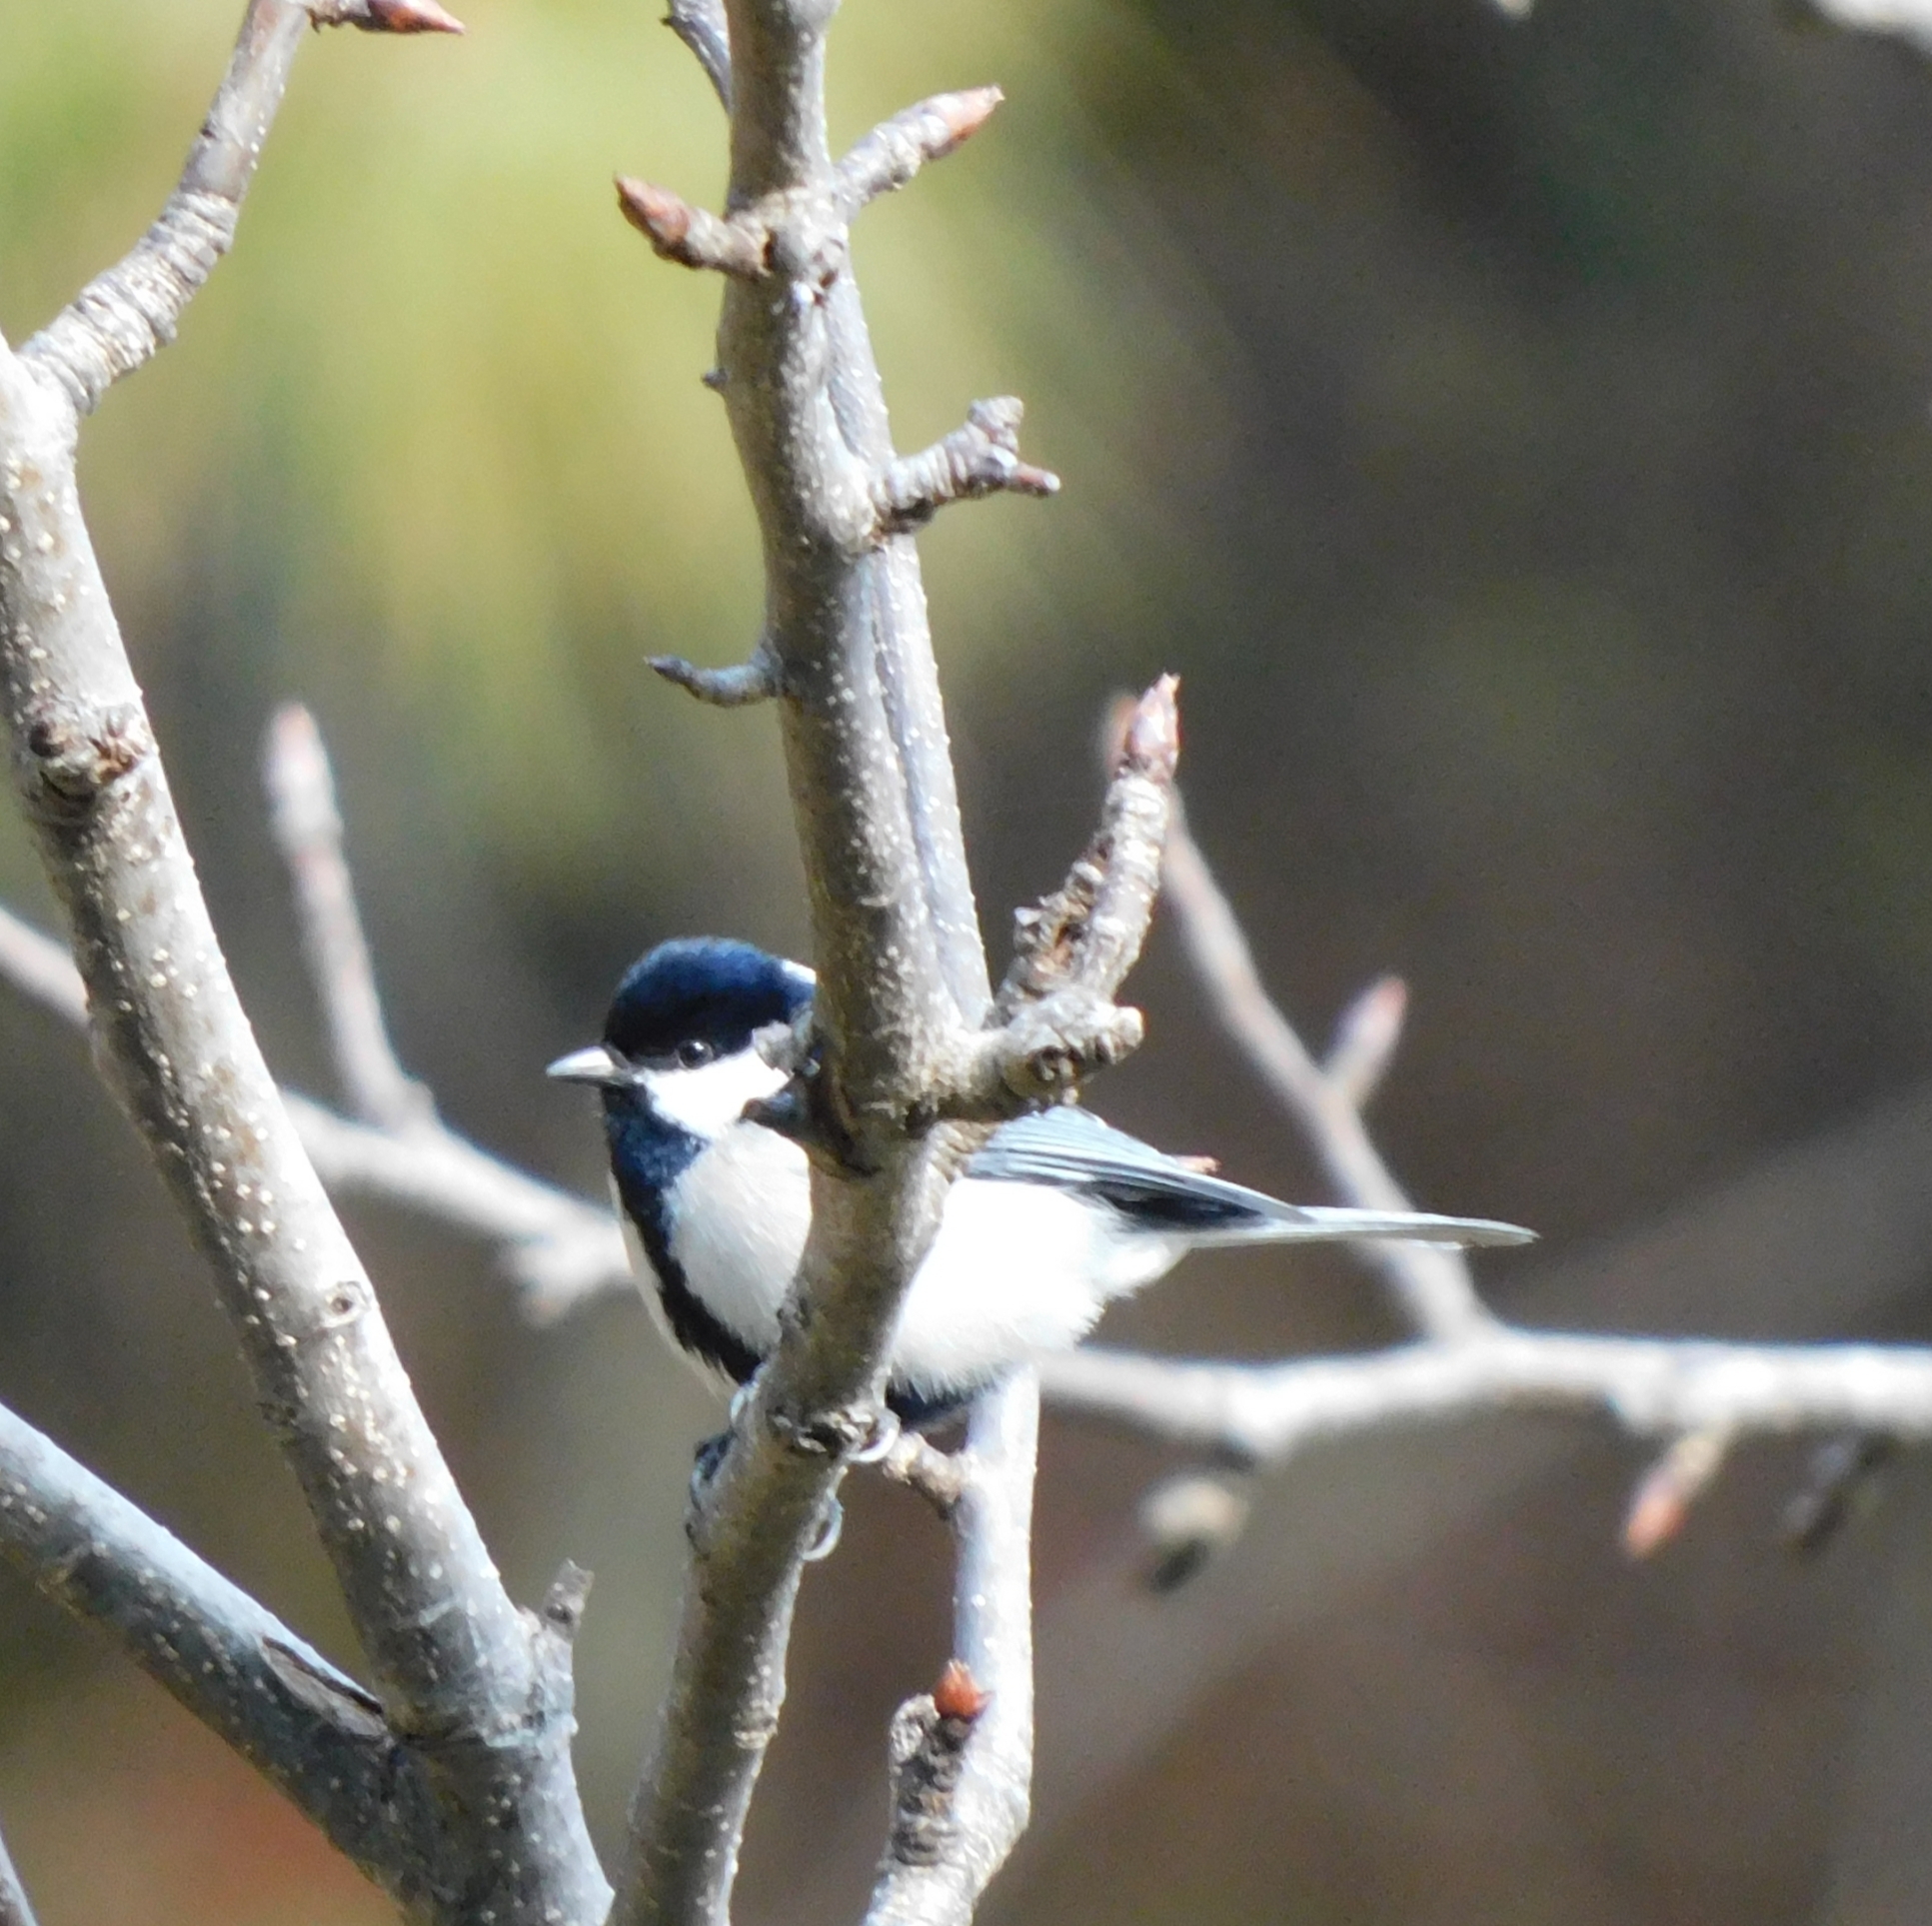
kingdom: Animalia
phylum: Chordata
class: Aves
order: Passeriformes
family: Paridae
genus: Parus
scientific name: Parus cinereus
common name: Cinereous tit
